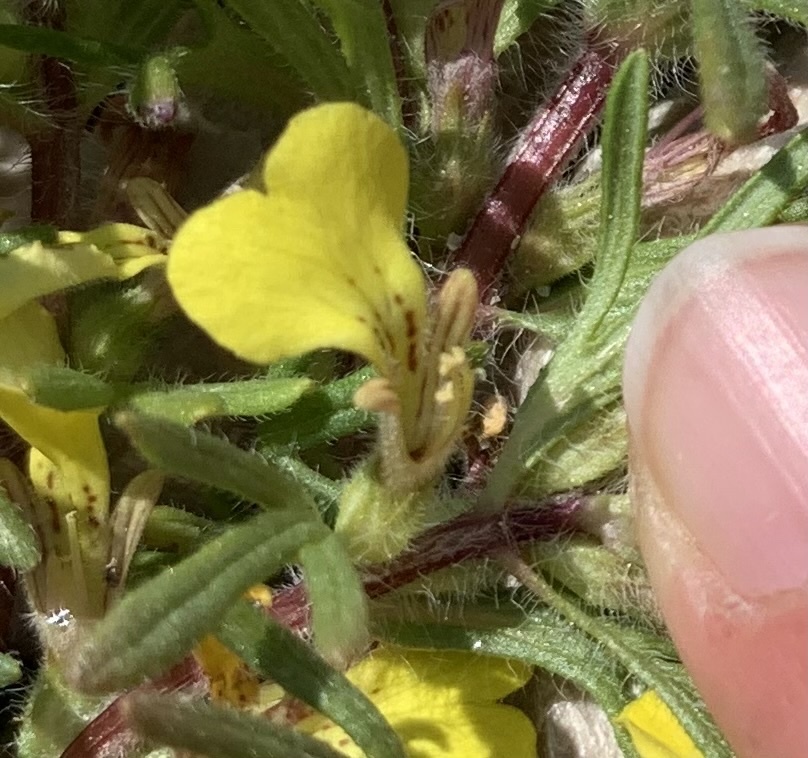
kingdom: Plantae
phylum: Tracheophyta
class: Magnoliopsida
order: Lamiales
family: Lamiaceae
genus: Ajuga
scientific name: Ajuga chamaepitys
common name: Ground-pine
